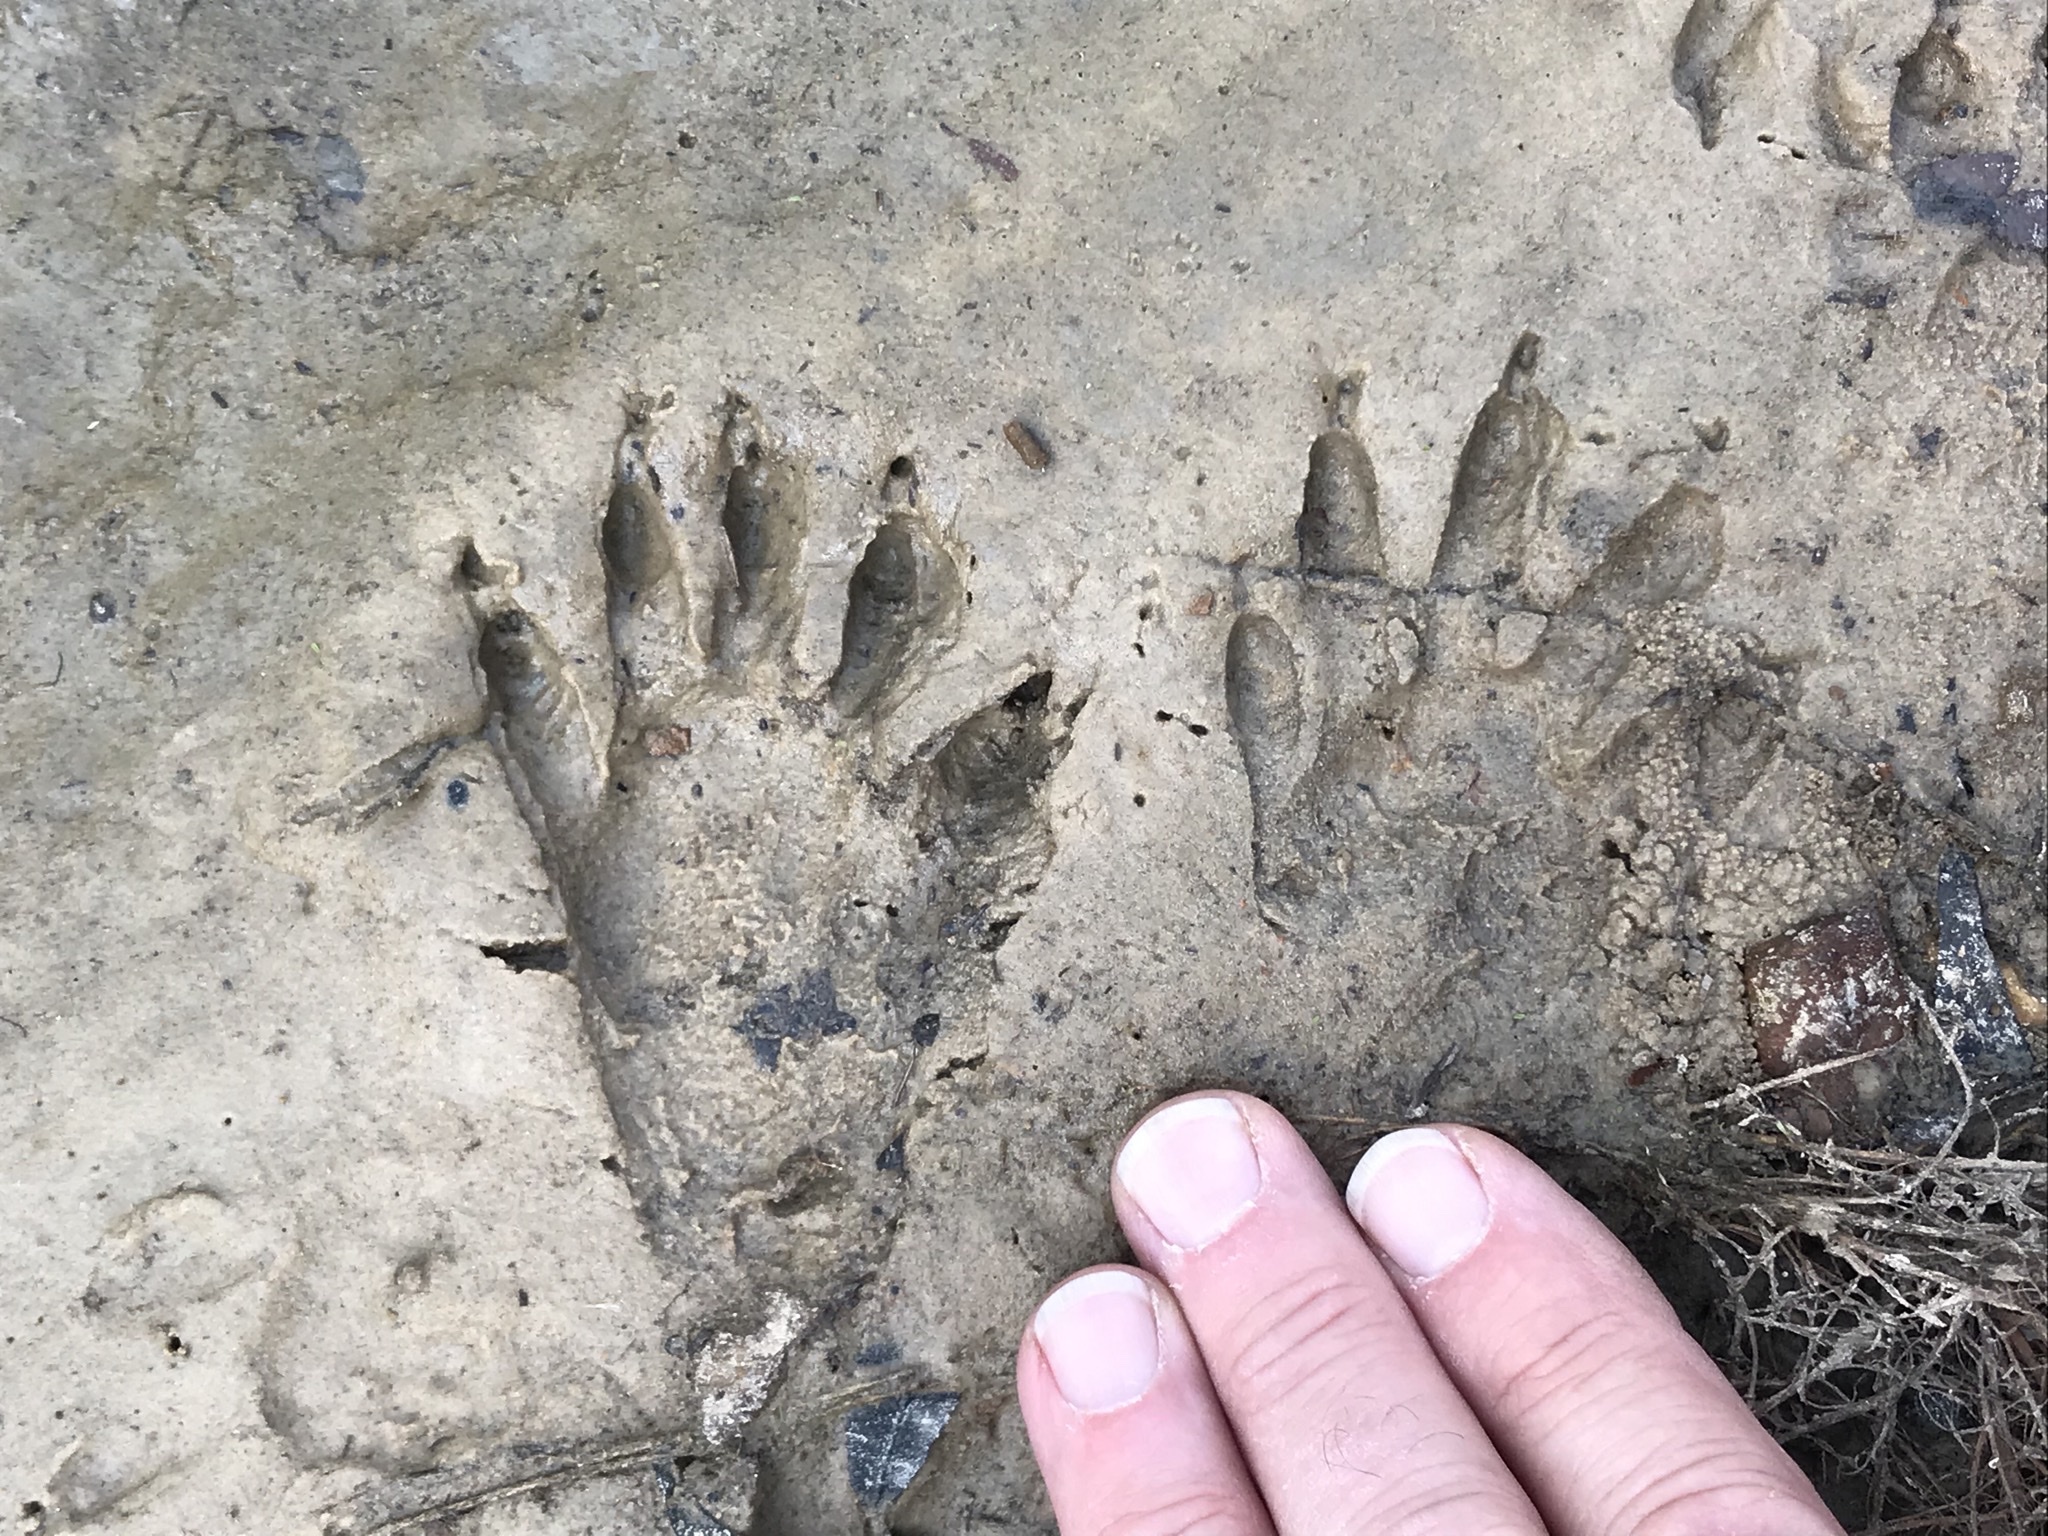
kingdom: Animalia
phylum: Chordata
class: Mammalia
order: Carnivora
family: Procyonidae
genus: Procyon
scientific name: Procyon lotor
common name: Raccoon
